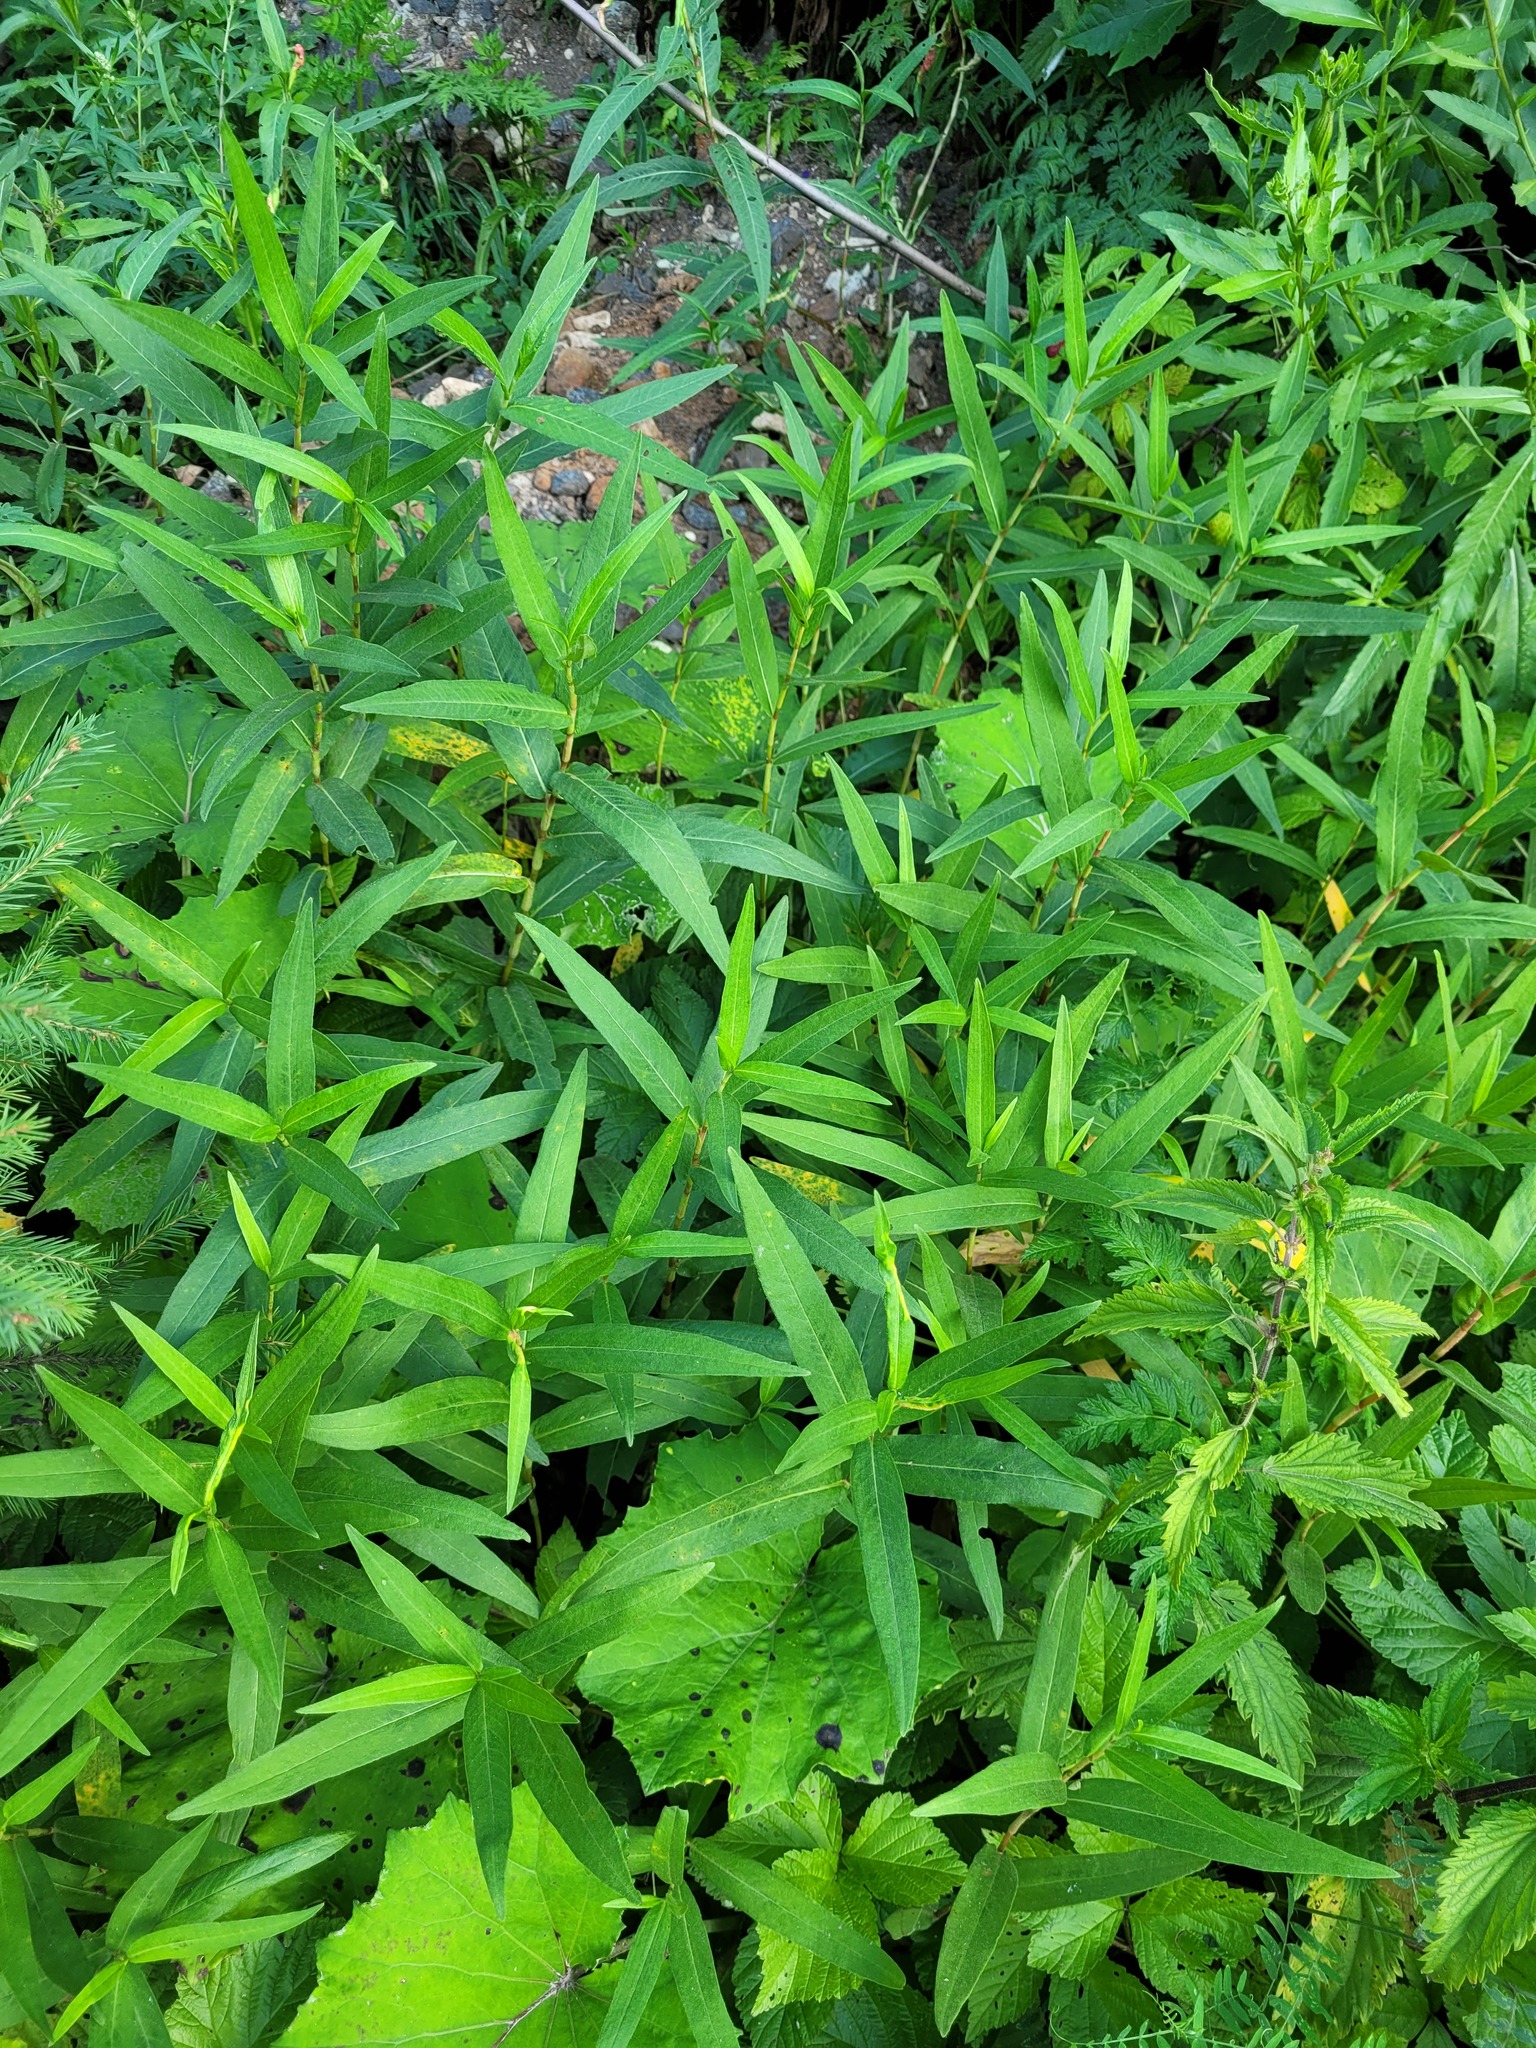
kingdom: Plantae
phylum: Tracheophyta
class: Magnoliopsida
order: Caryophyllales
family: Polygonaceae
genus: Persicaria
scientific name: Persicaria amphibia
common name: Amphibious bistort
